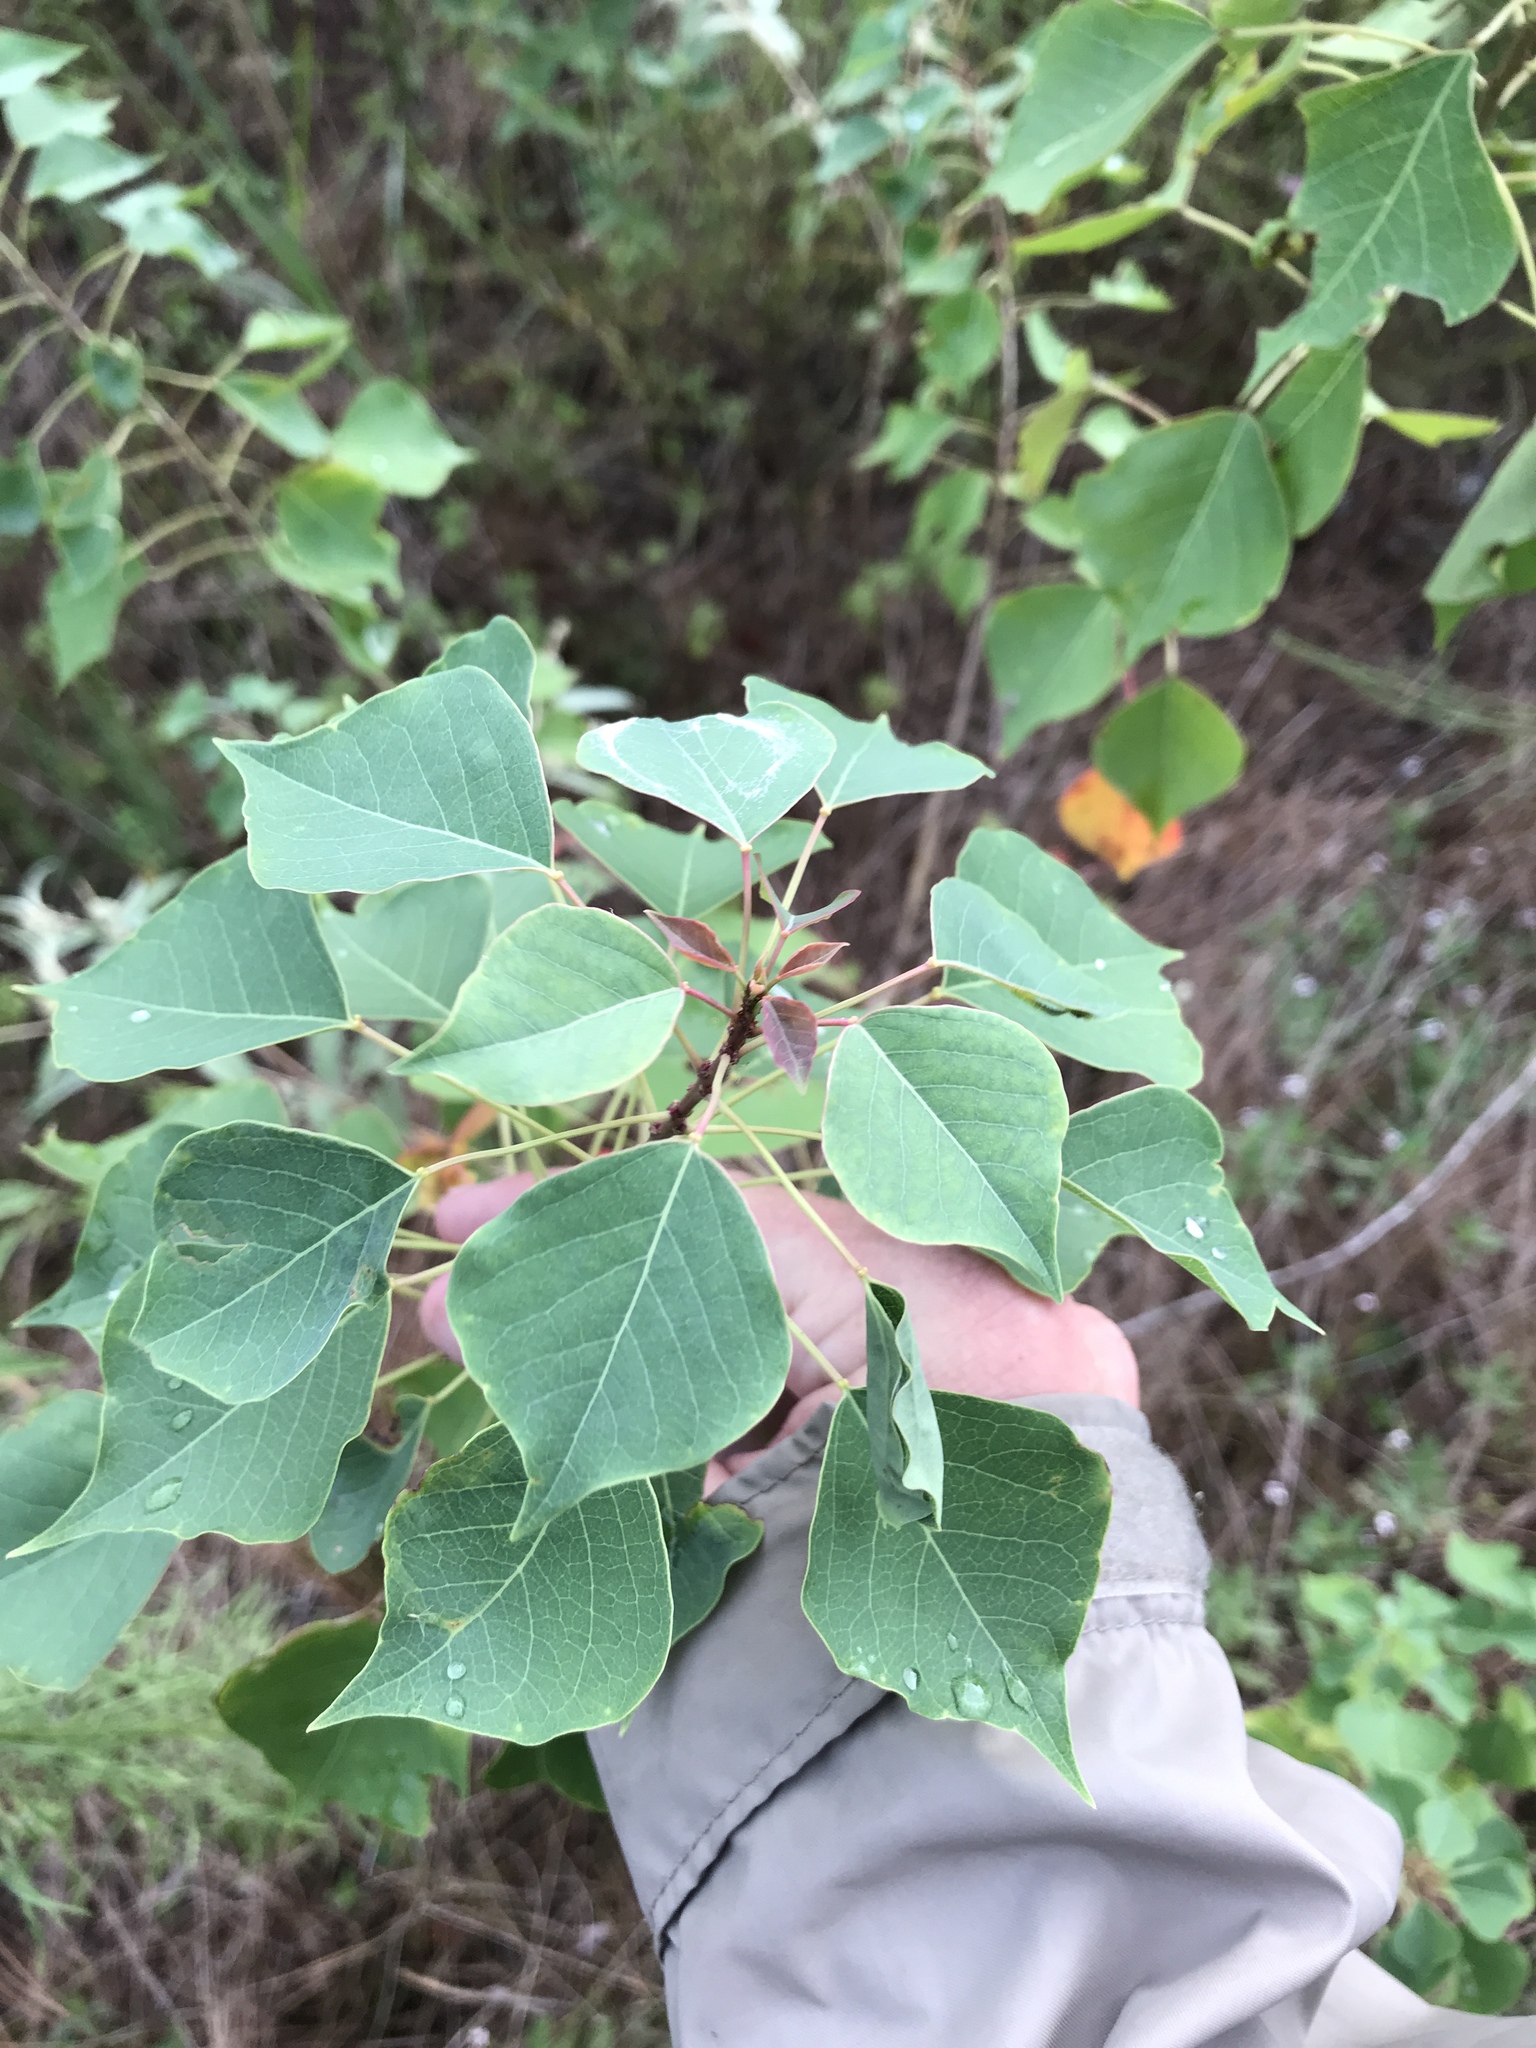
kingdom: Plantae
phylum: Tracheophyta
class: Magnoliopsida
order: Malpighiales
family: Euphorbiaceae
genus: Triadica
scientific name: Triadica sebifera
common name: Chinese tallow
